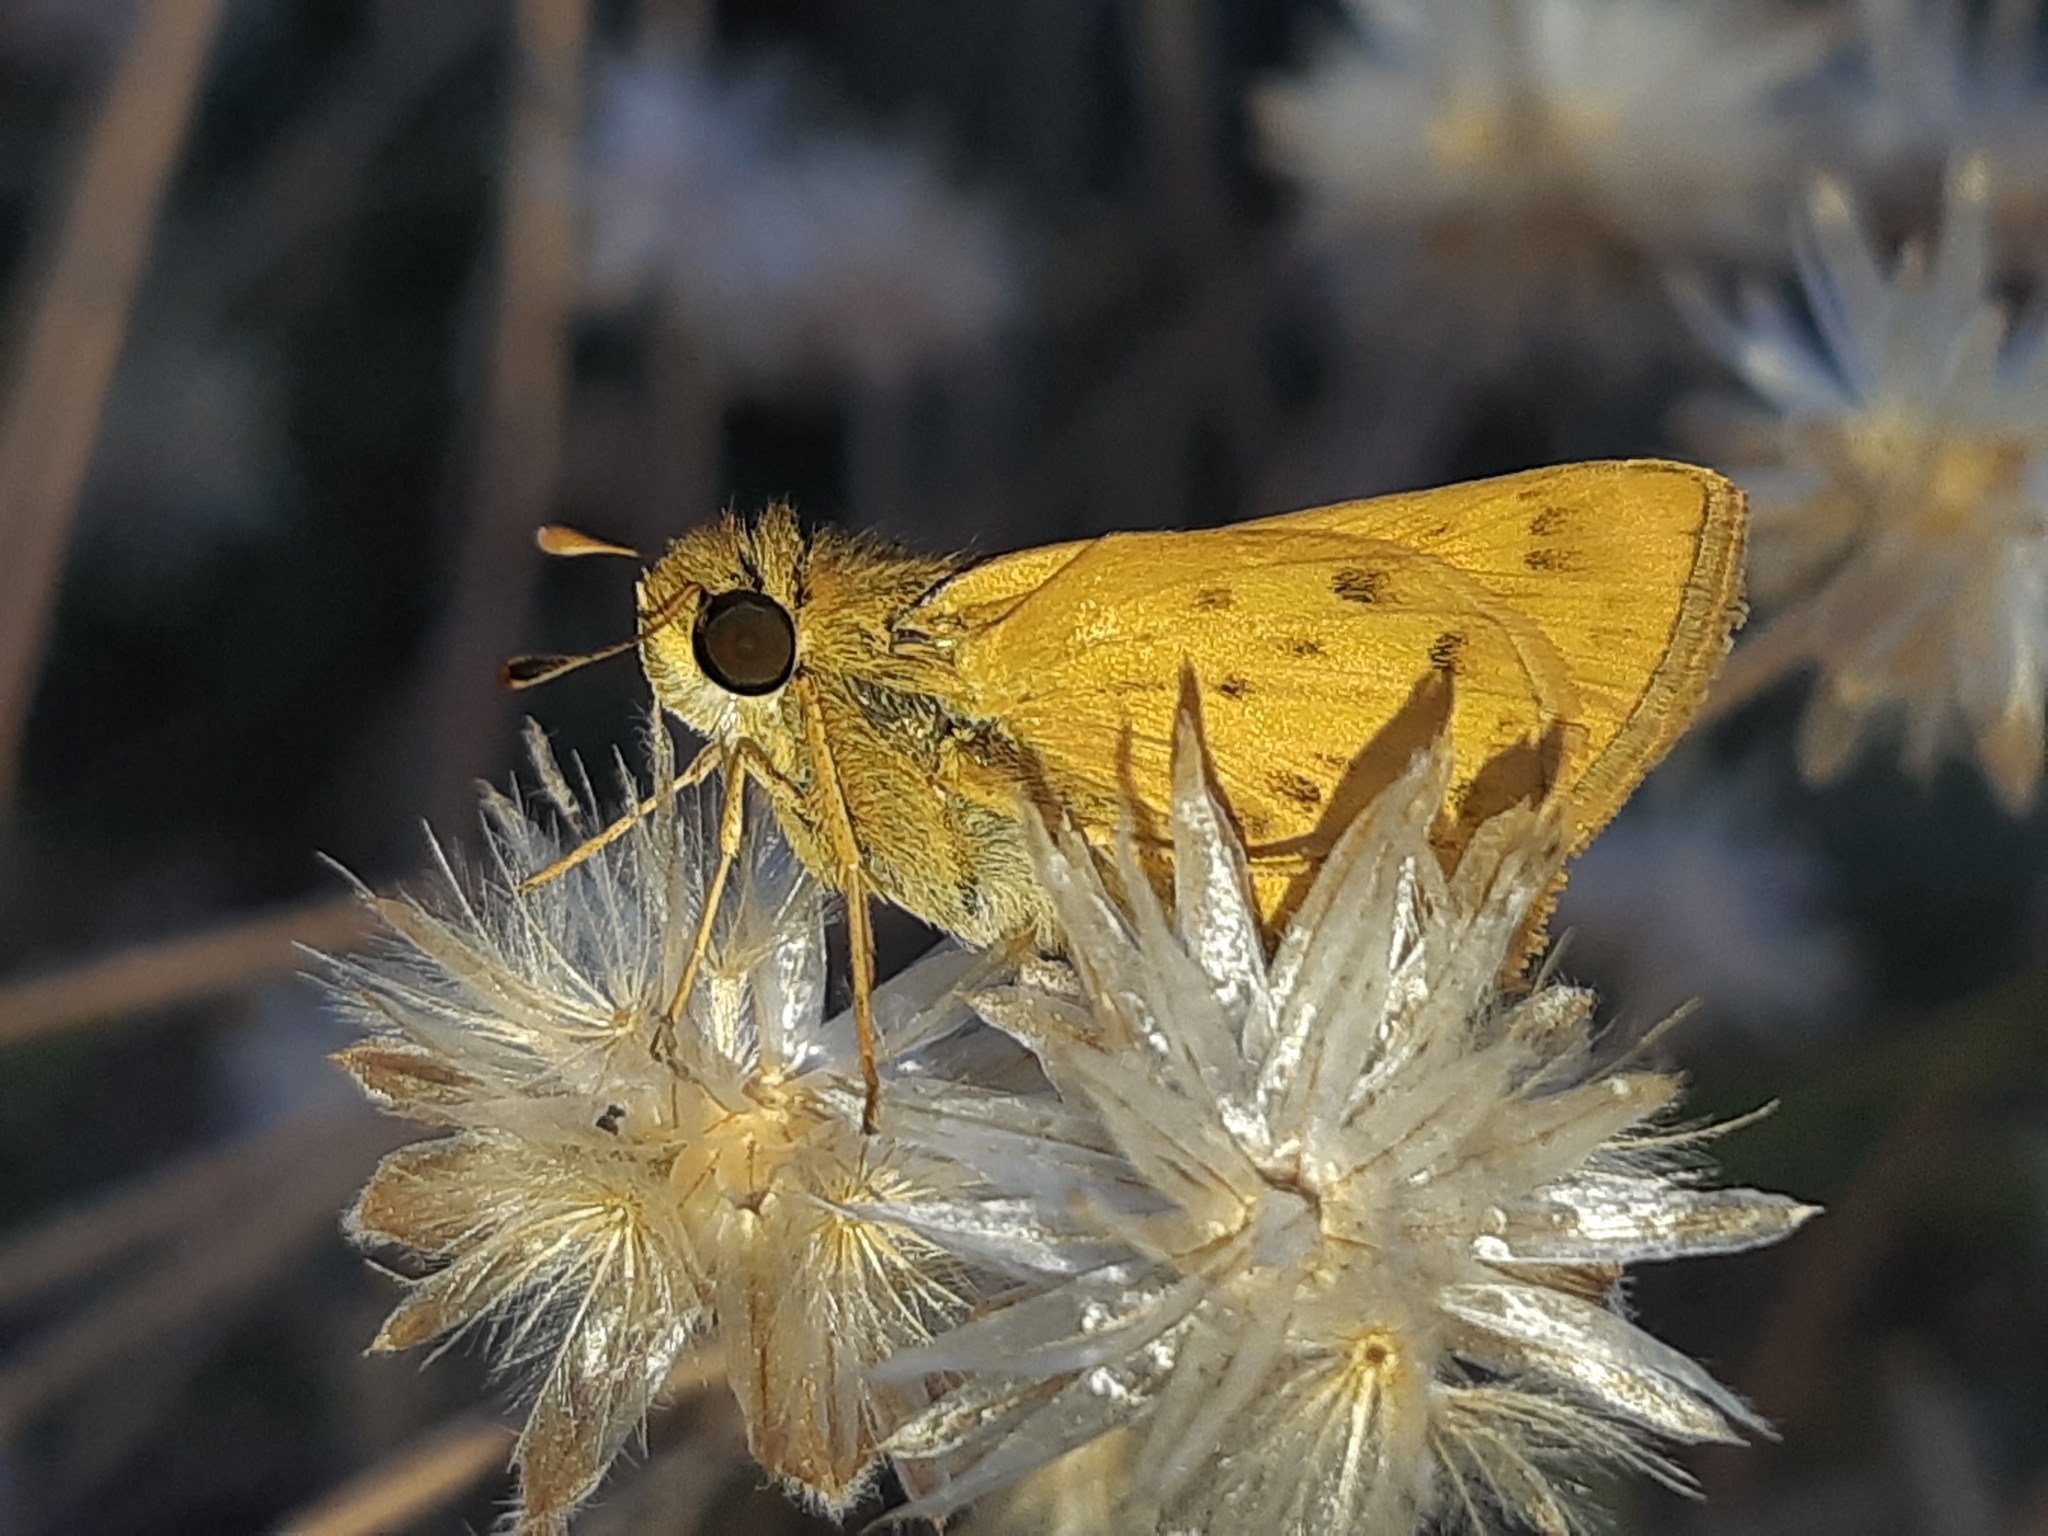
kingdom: Animalia
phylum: Arthropoda
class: Insecta
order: Lepidoptera
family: Hesperiidae
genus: Hylephila
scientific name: Hylephila phyleus
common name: Fiery skipper
